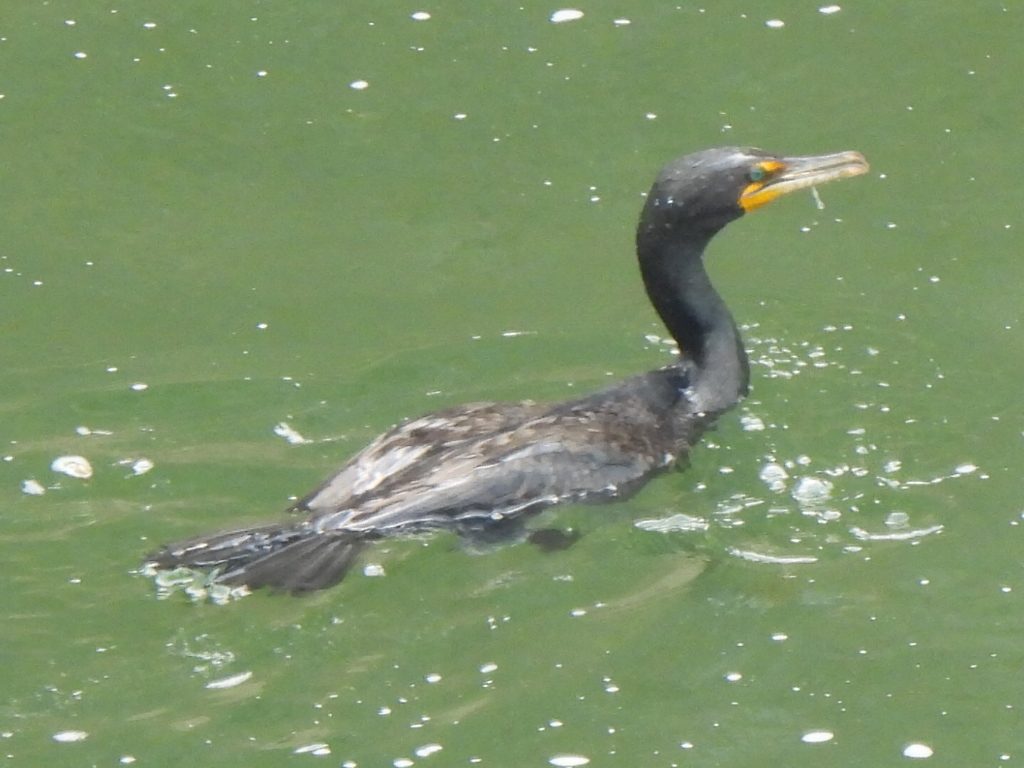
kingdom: Animalia
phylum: Chordata
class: Aves
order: Suliformes
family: Phalacrocoracidae
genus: Phalacrocorax
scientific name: Phalacrocorax auritus
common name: Double-crested cormorant
